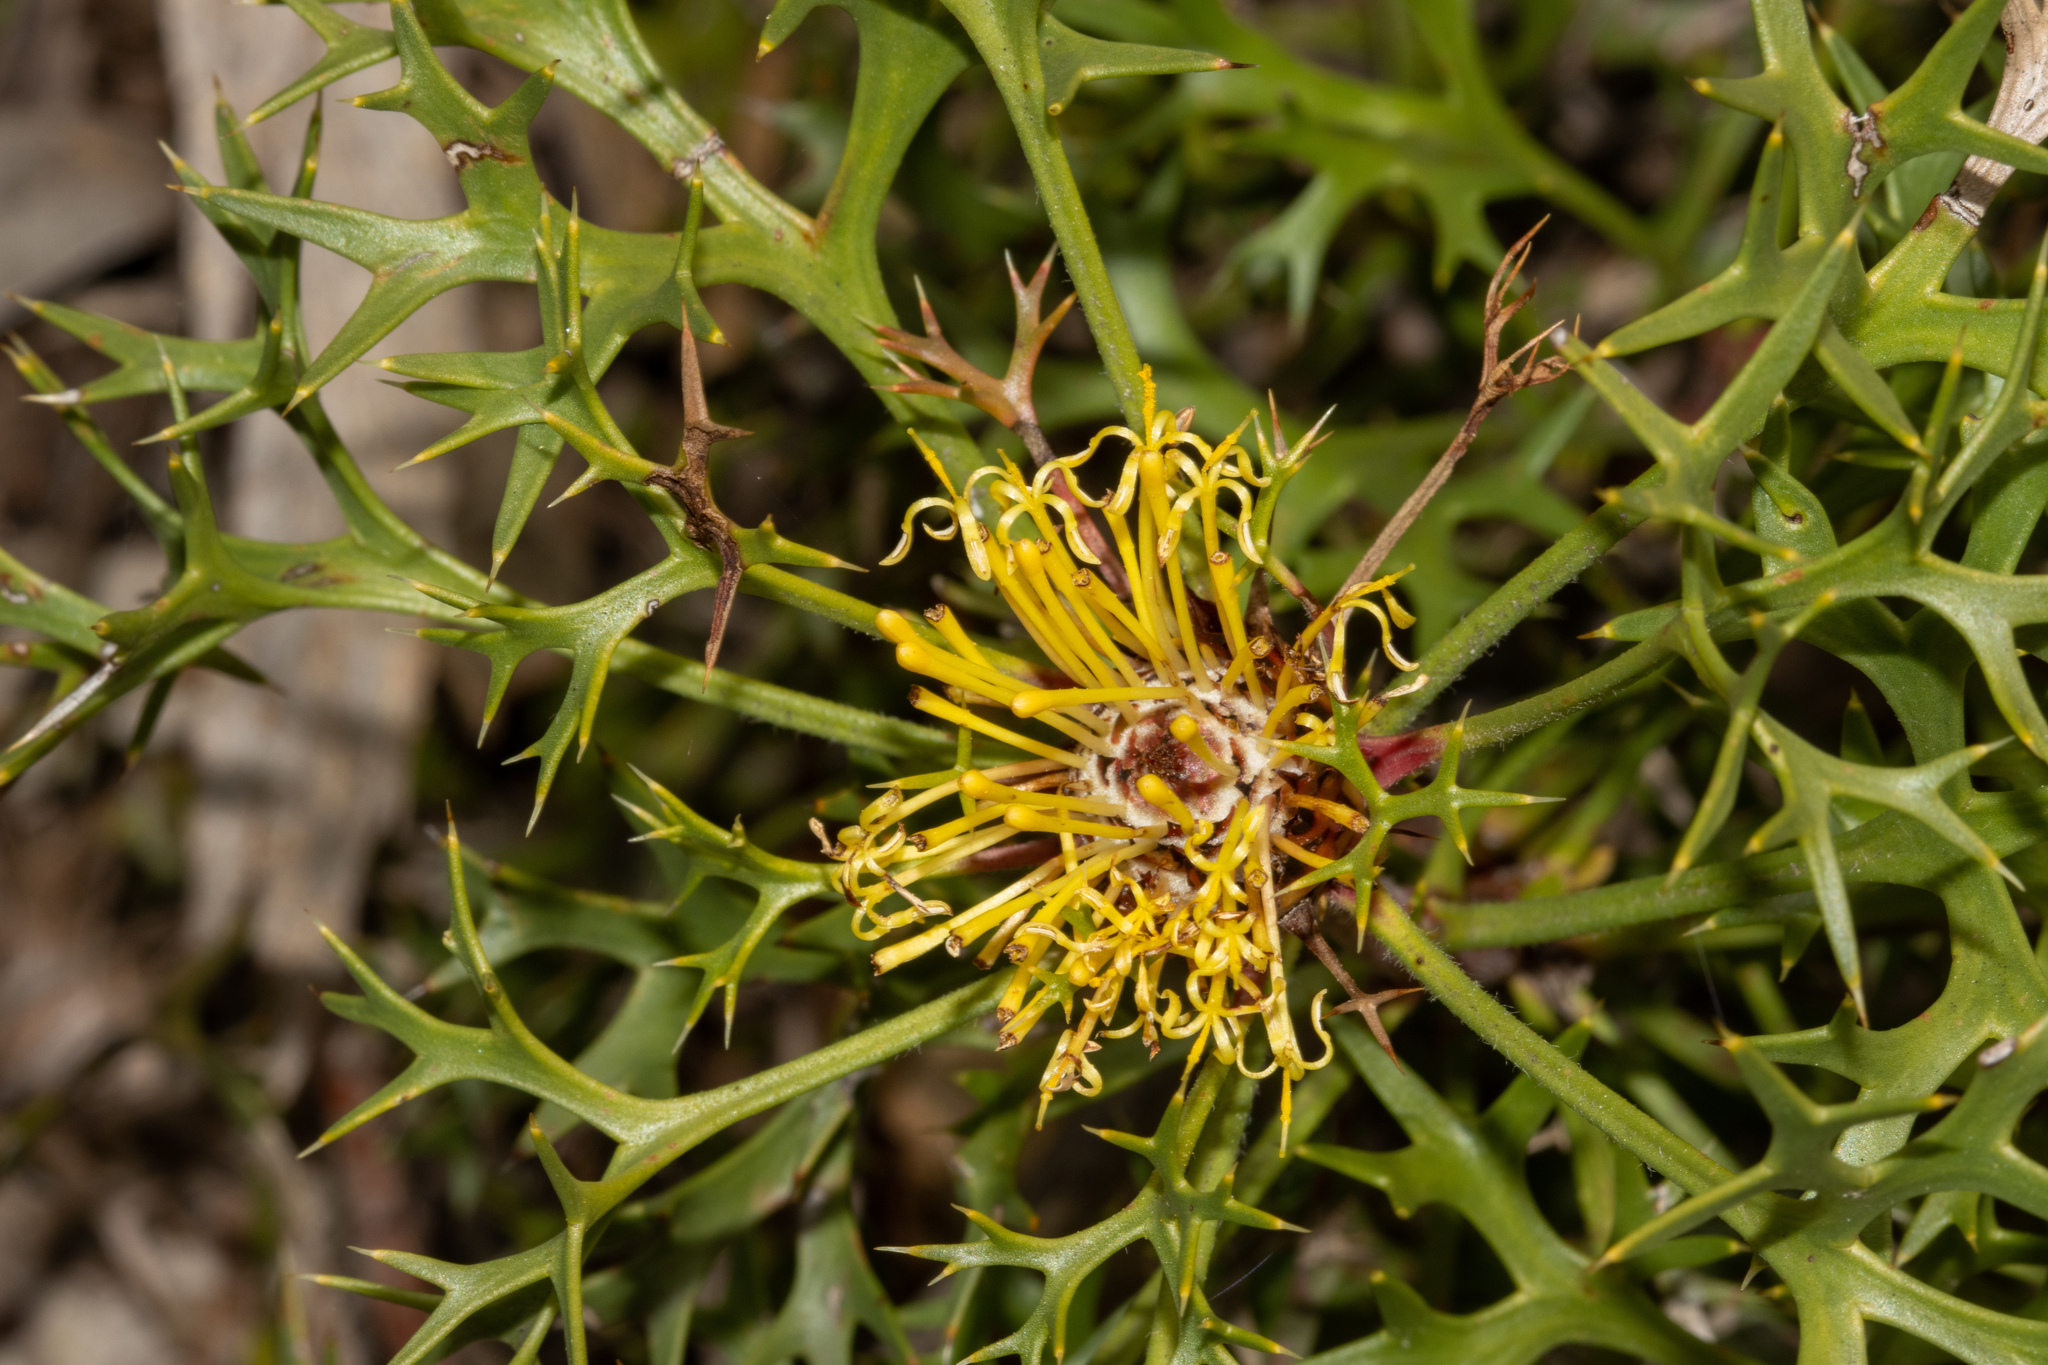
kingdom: Plantae
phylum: Tracheophyta
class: Magnoliopsida
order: Proteales
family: Proteaceae
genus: Isopogon
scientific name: Isopogon ceratophyllus
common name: Horny cone-bush
